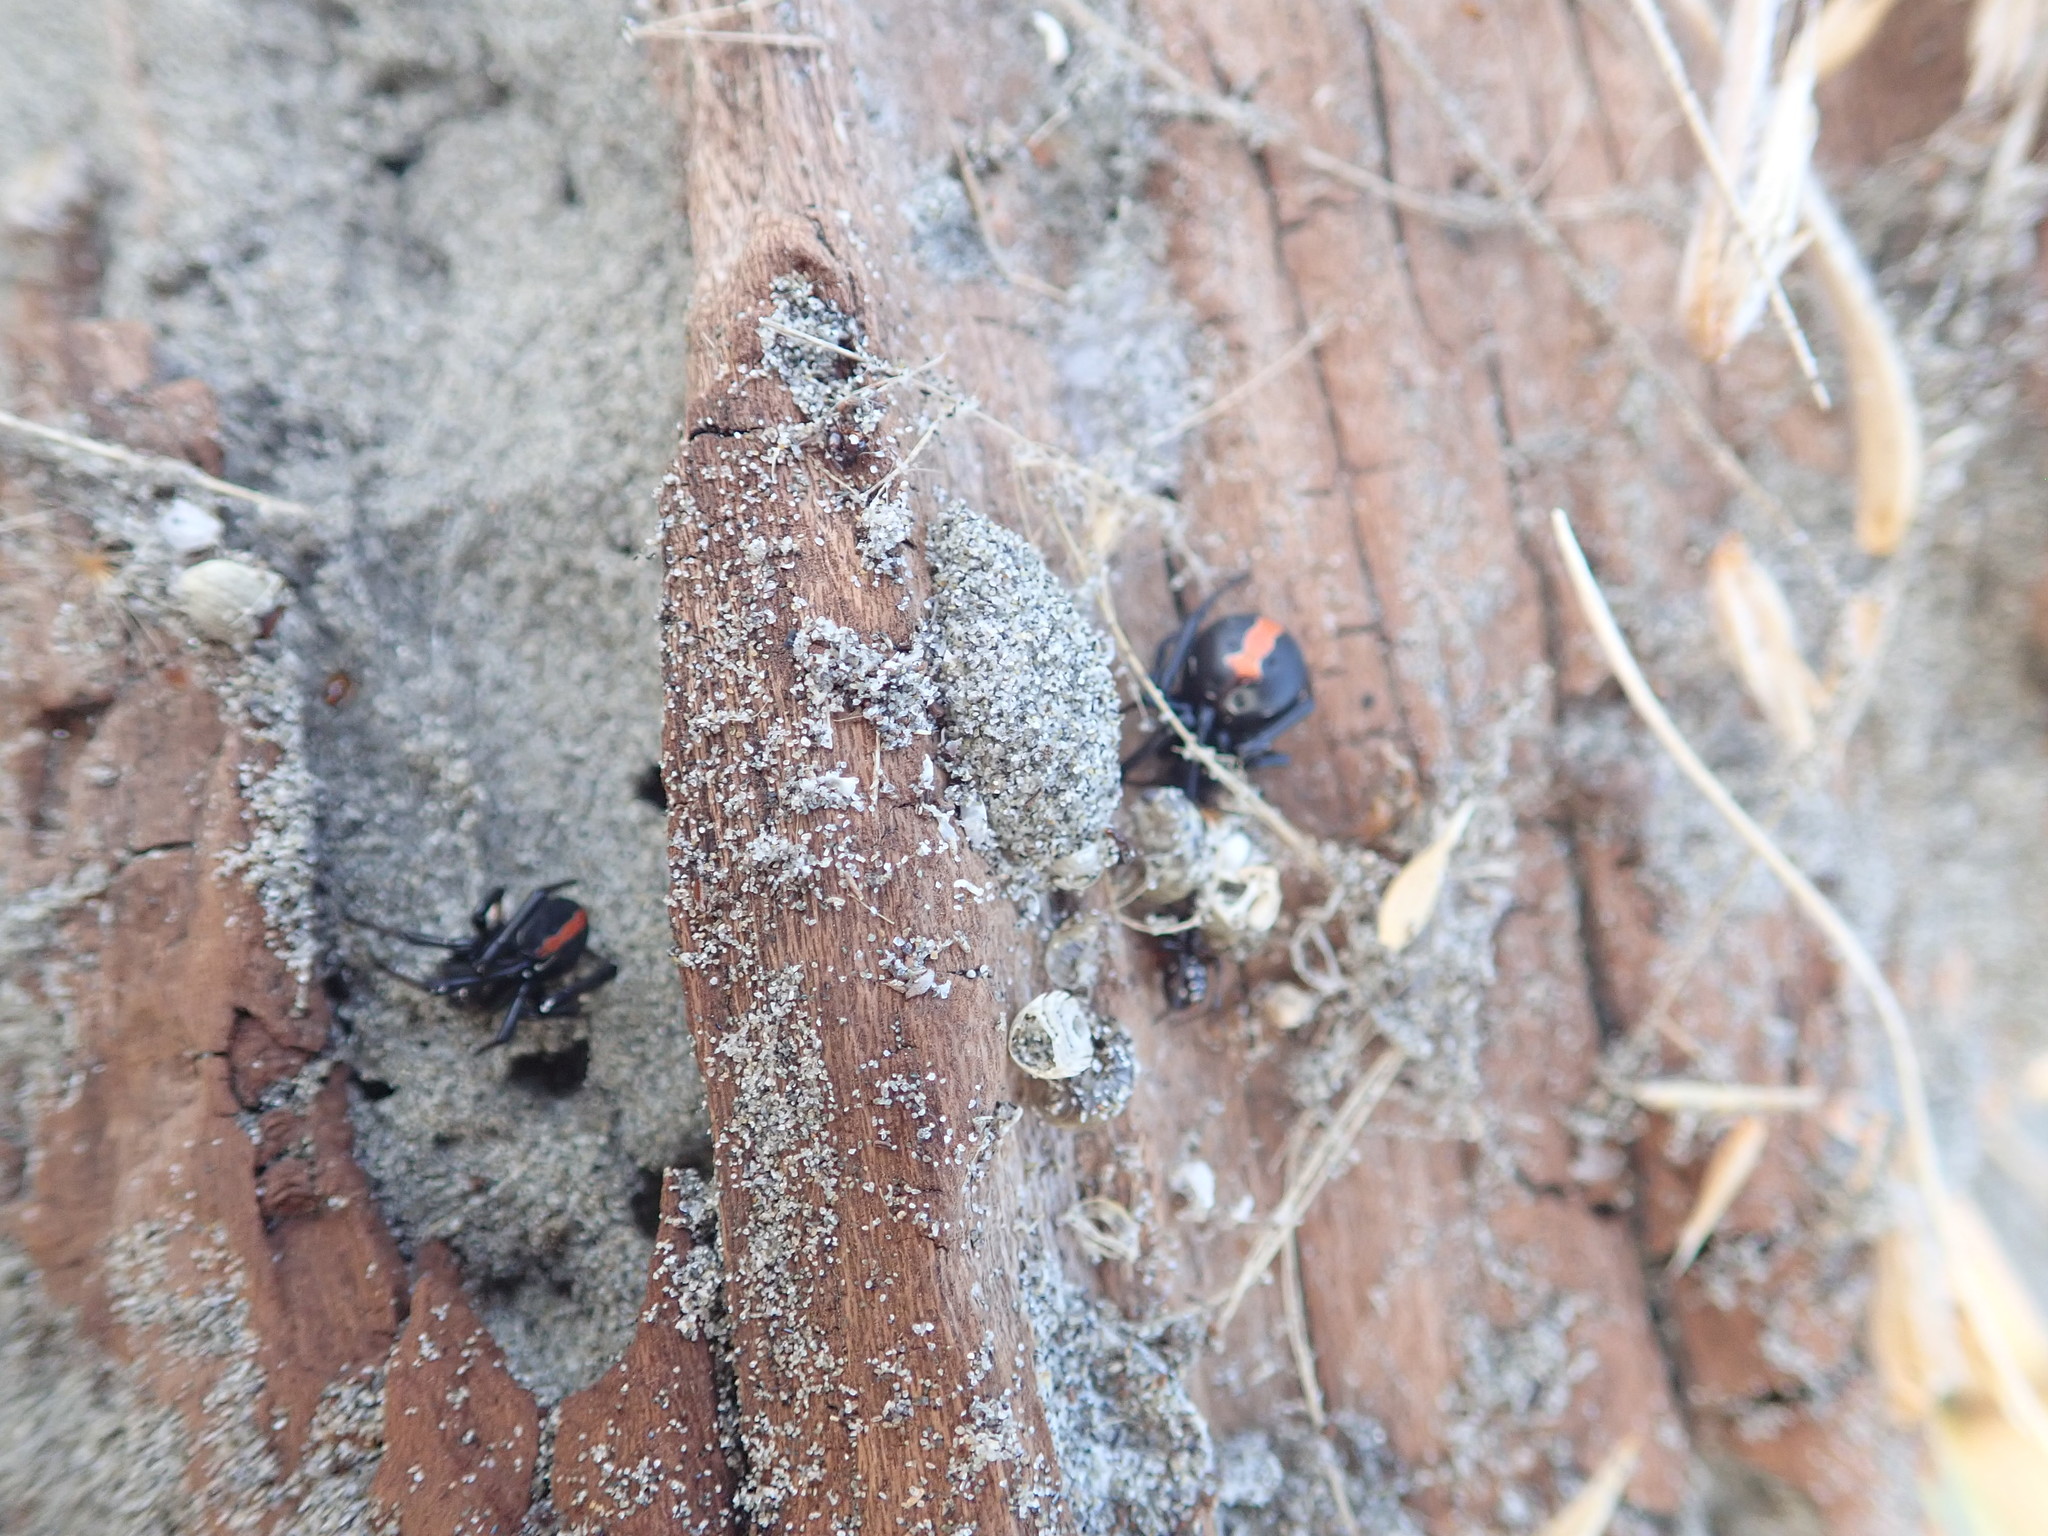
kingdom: Animalia
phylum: Arthropoda
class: Arachnida
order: Araneae
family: Theridiidae
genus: Latrodectus
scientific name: Latrodectus katipo
